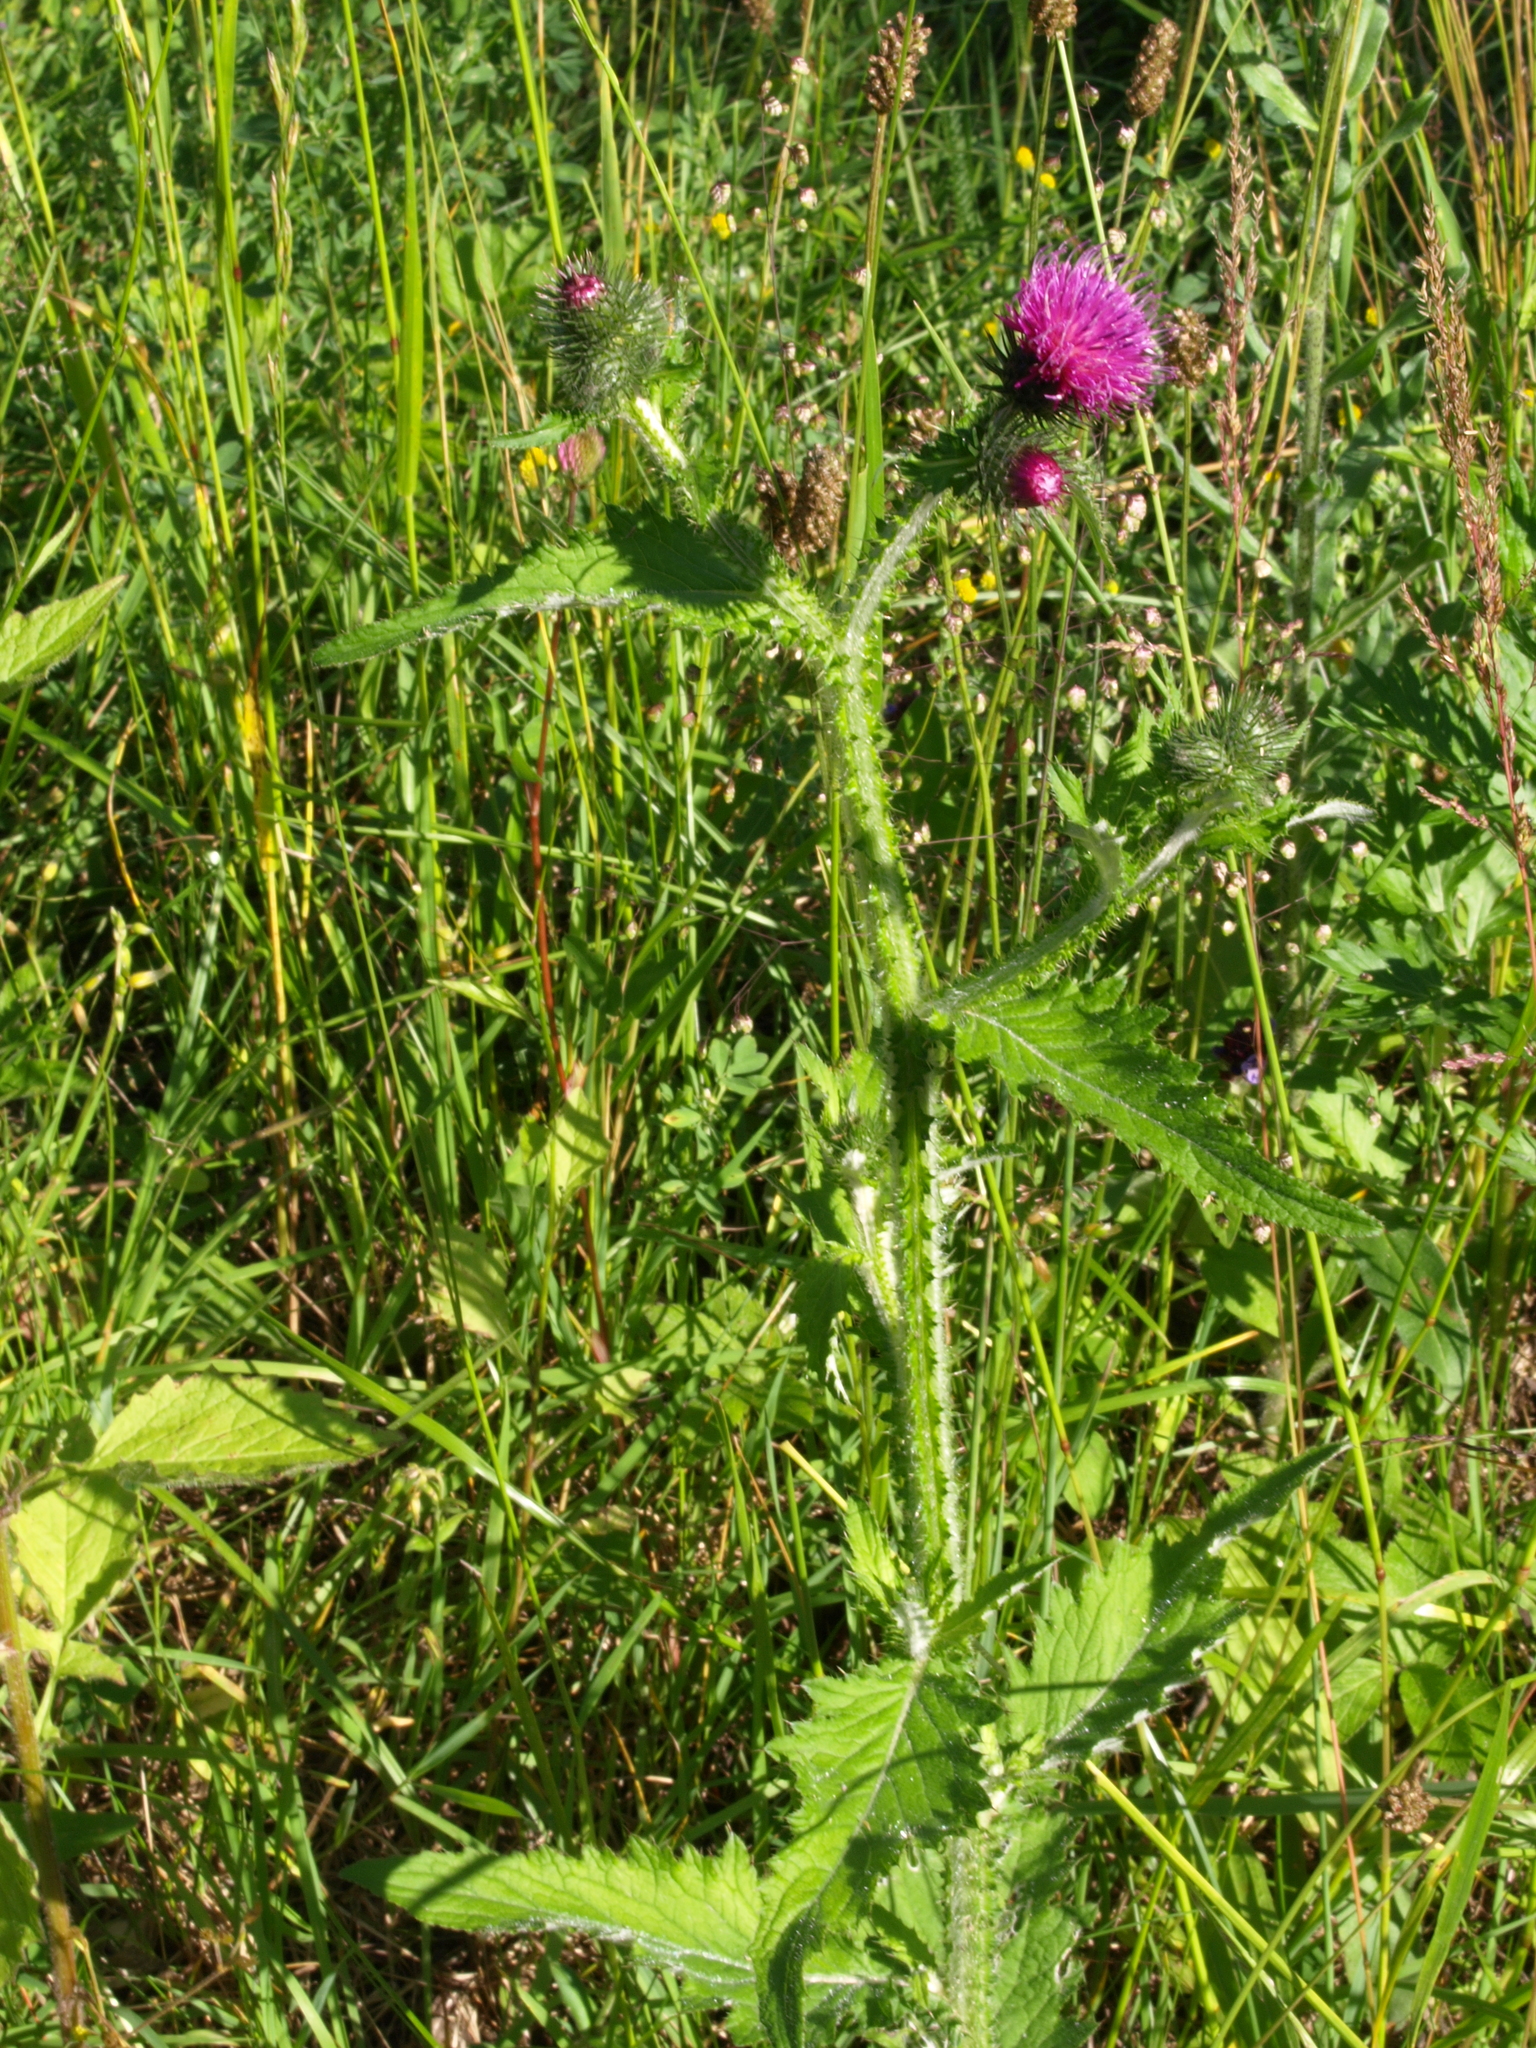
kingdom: Plantae
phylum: Tracheophyta
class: Magnoliopsida
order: Asterales
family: Asteraceae
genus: Carduus
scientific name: Carduus crispus
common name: Welted thistle
